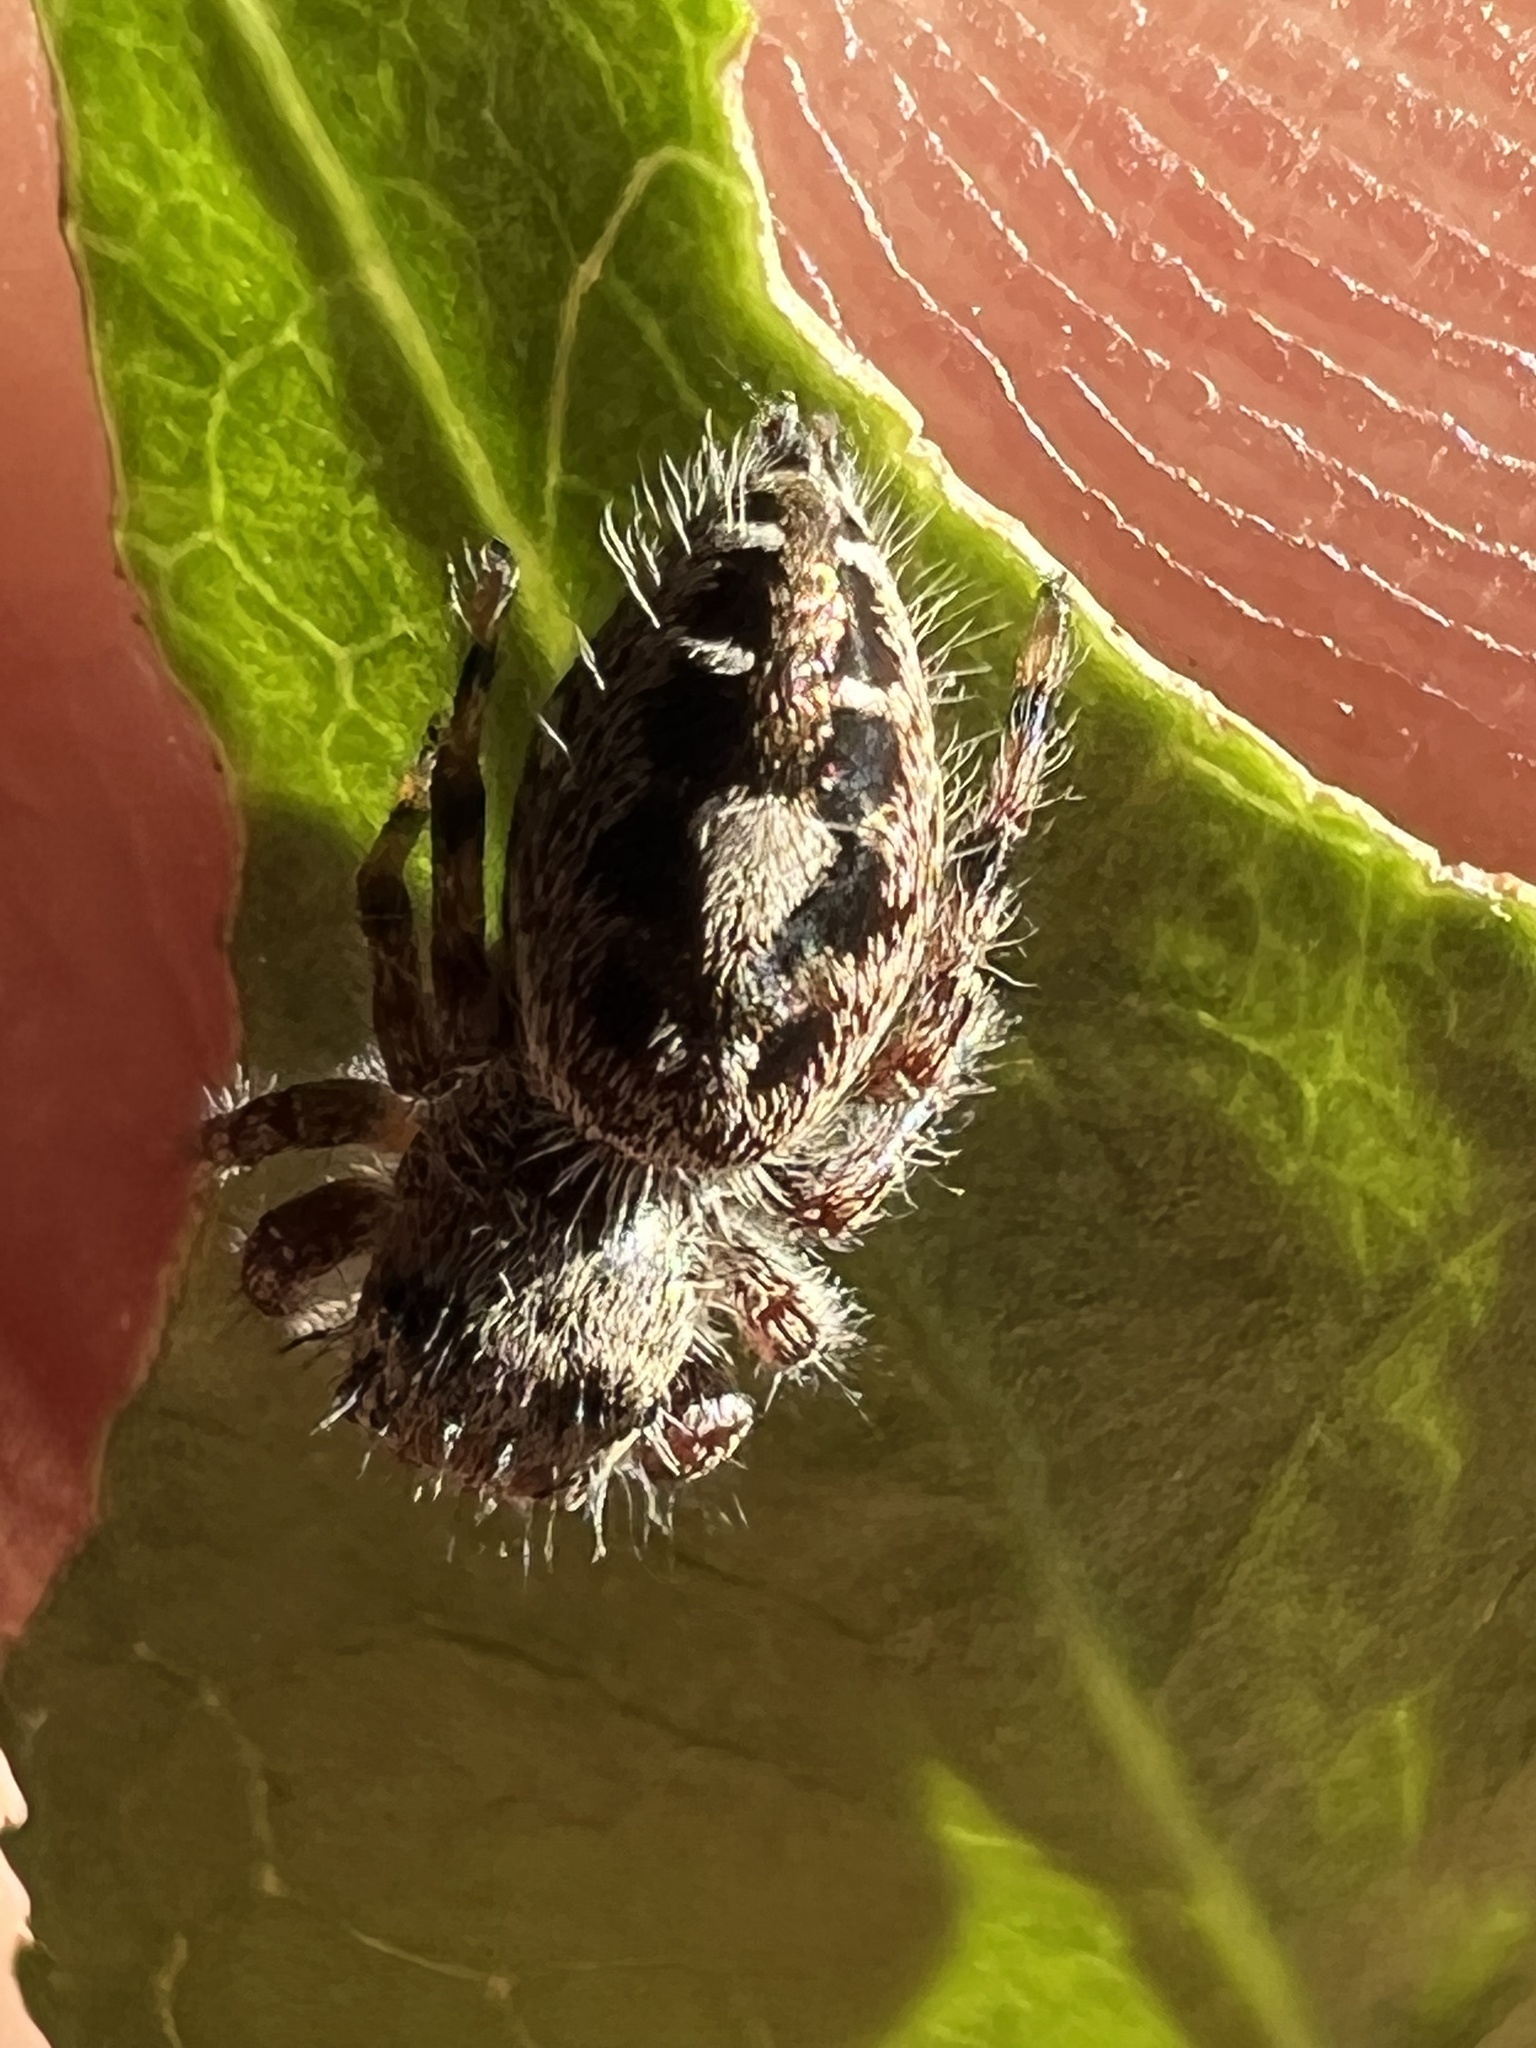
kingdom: Animalia
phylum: Arthropoda
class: Arachnida
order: Araneae
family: Salticidae
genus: Phidippus
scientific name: Phidippus putnami
